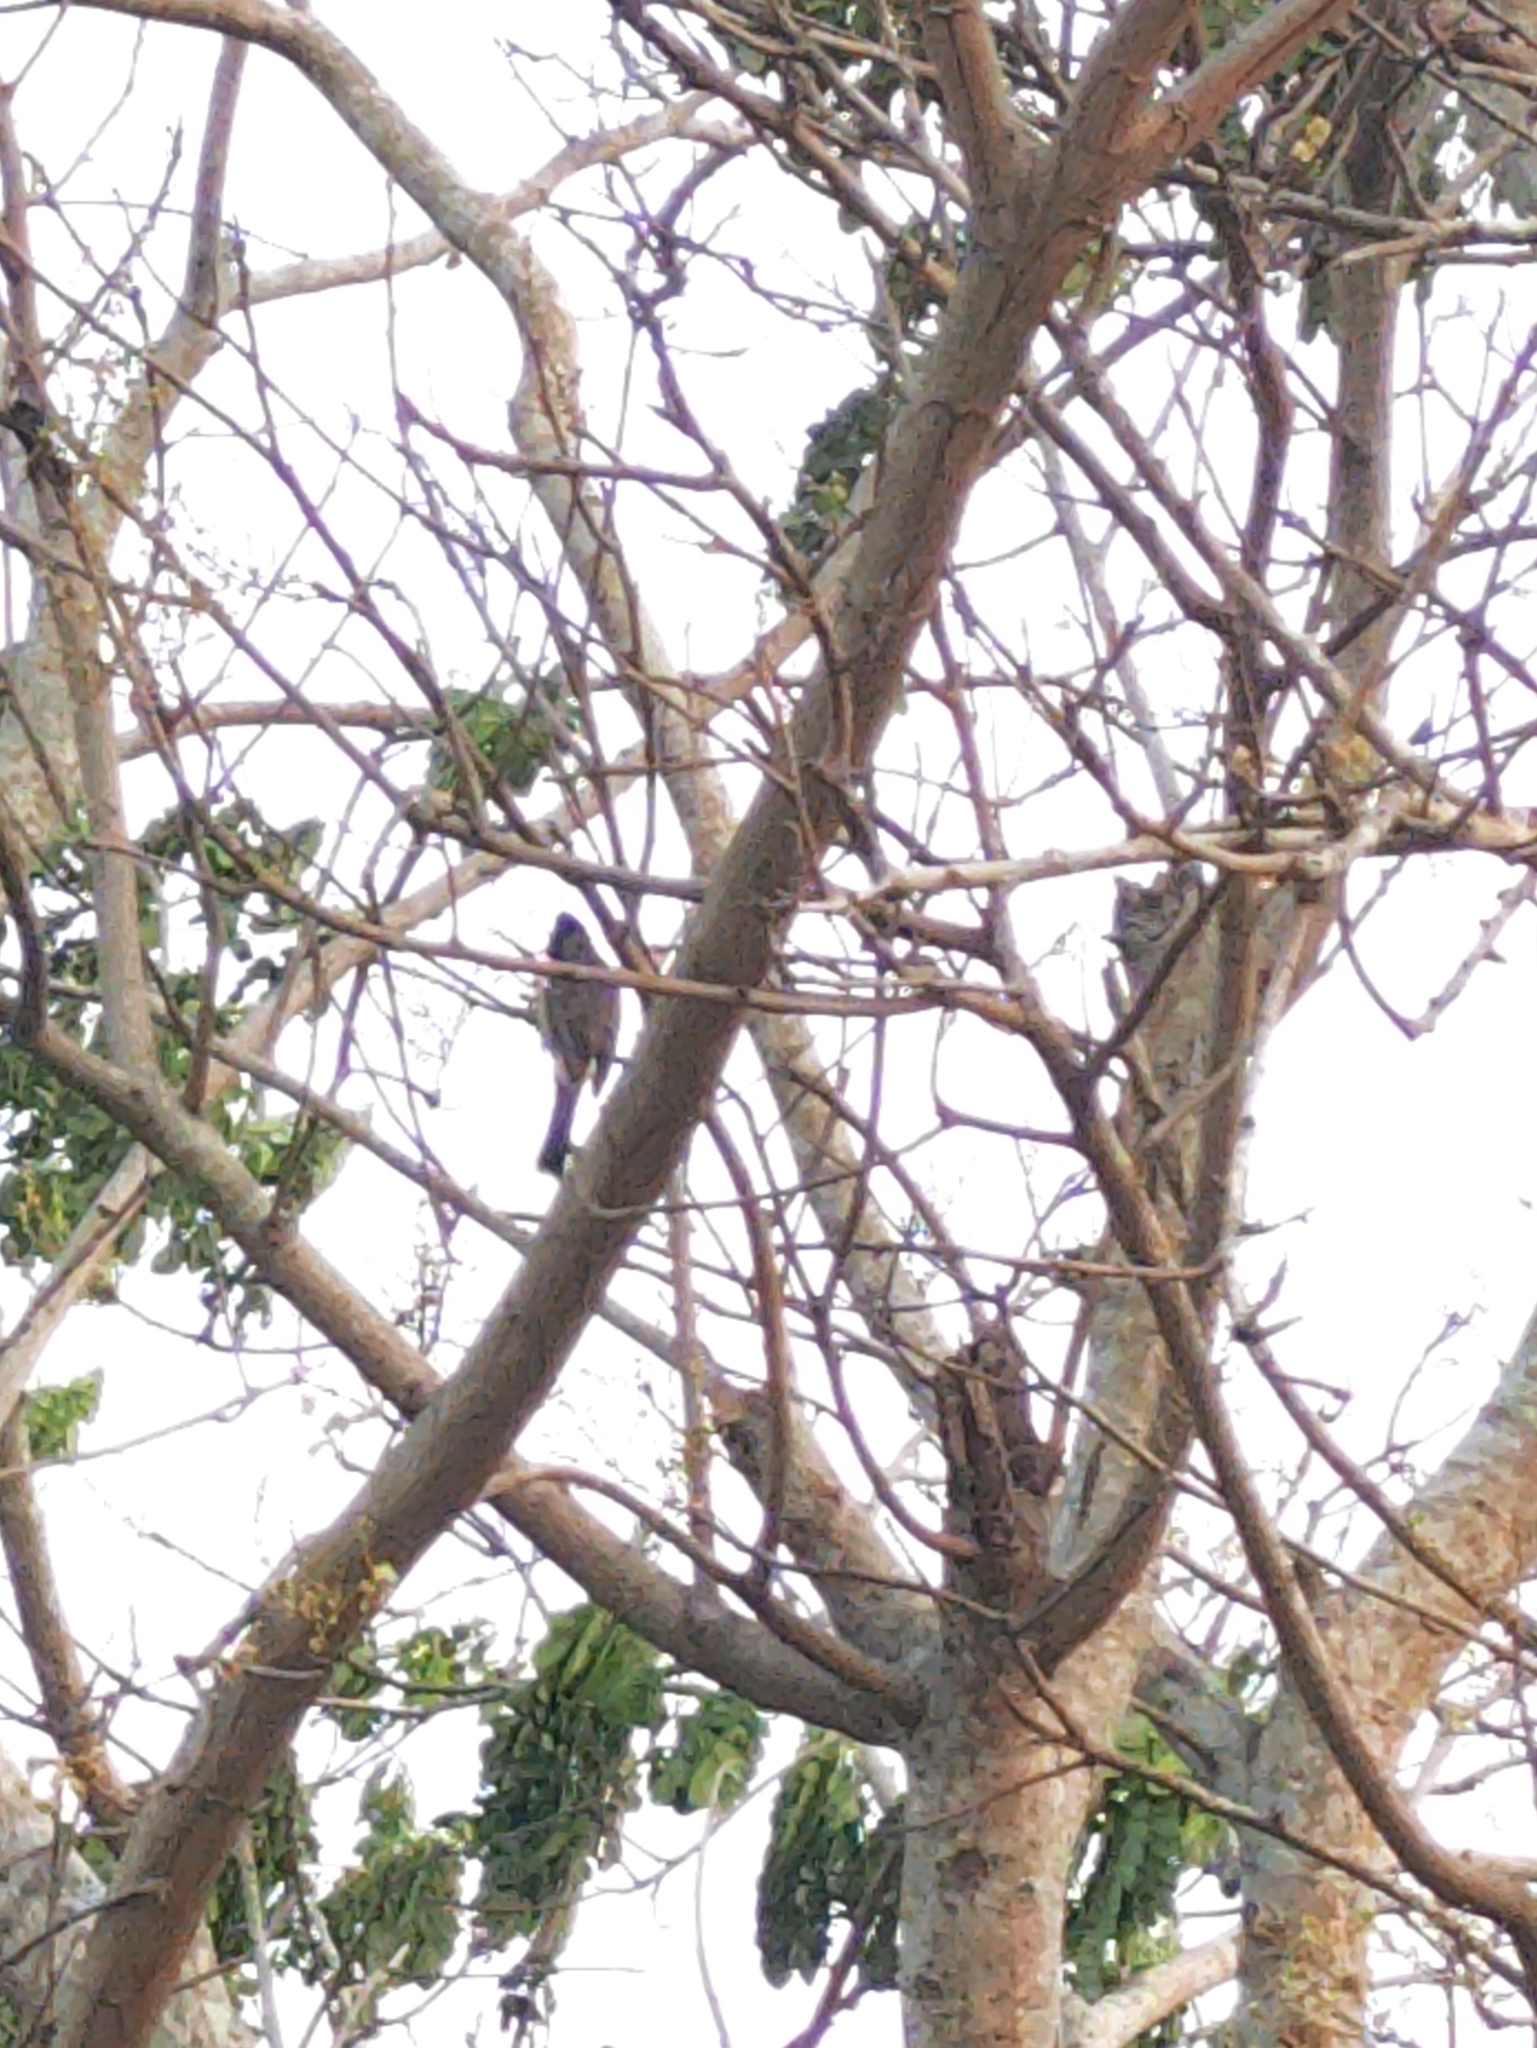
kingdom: Animalia
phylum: Chordata
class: Aves
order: Passeriformes
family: Pycnonotidae
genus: Pycnonotus
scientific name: Pycnonotus cafer
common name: Red-vented bulbul
